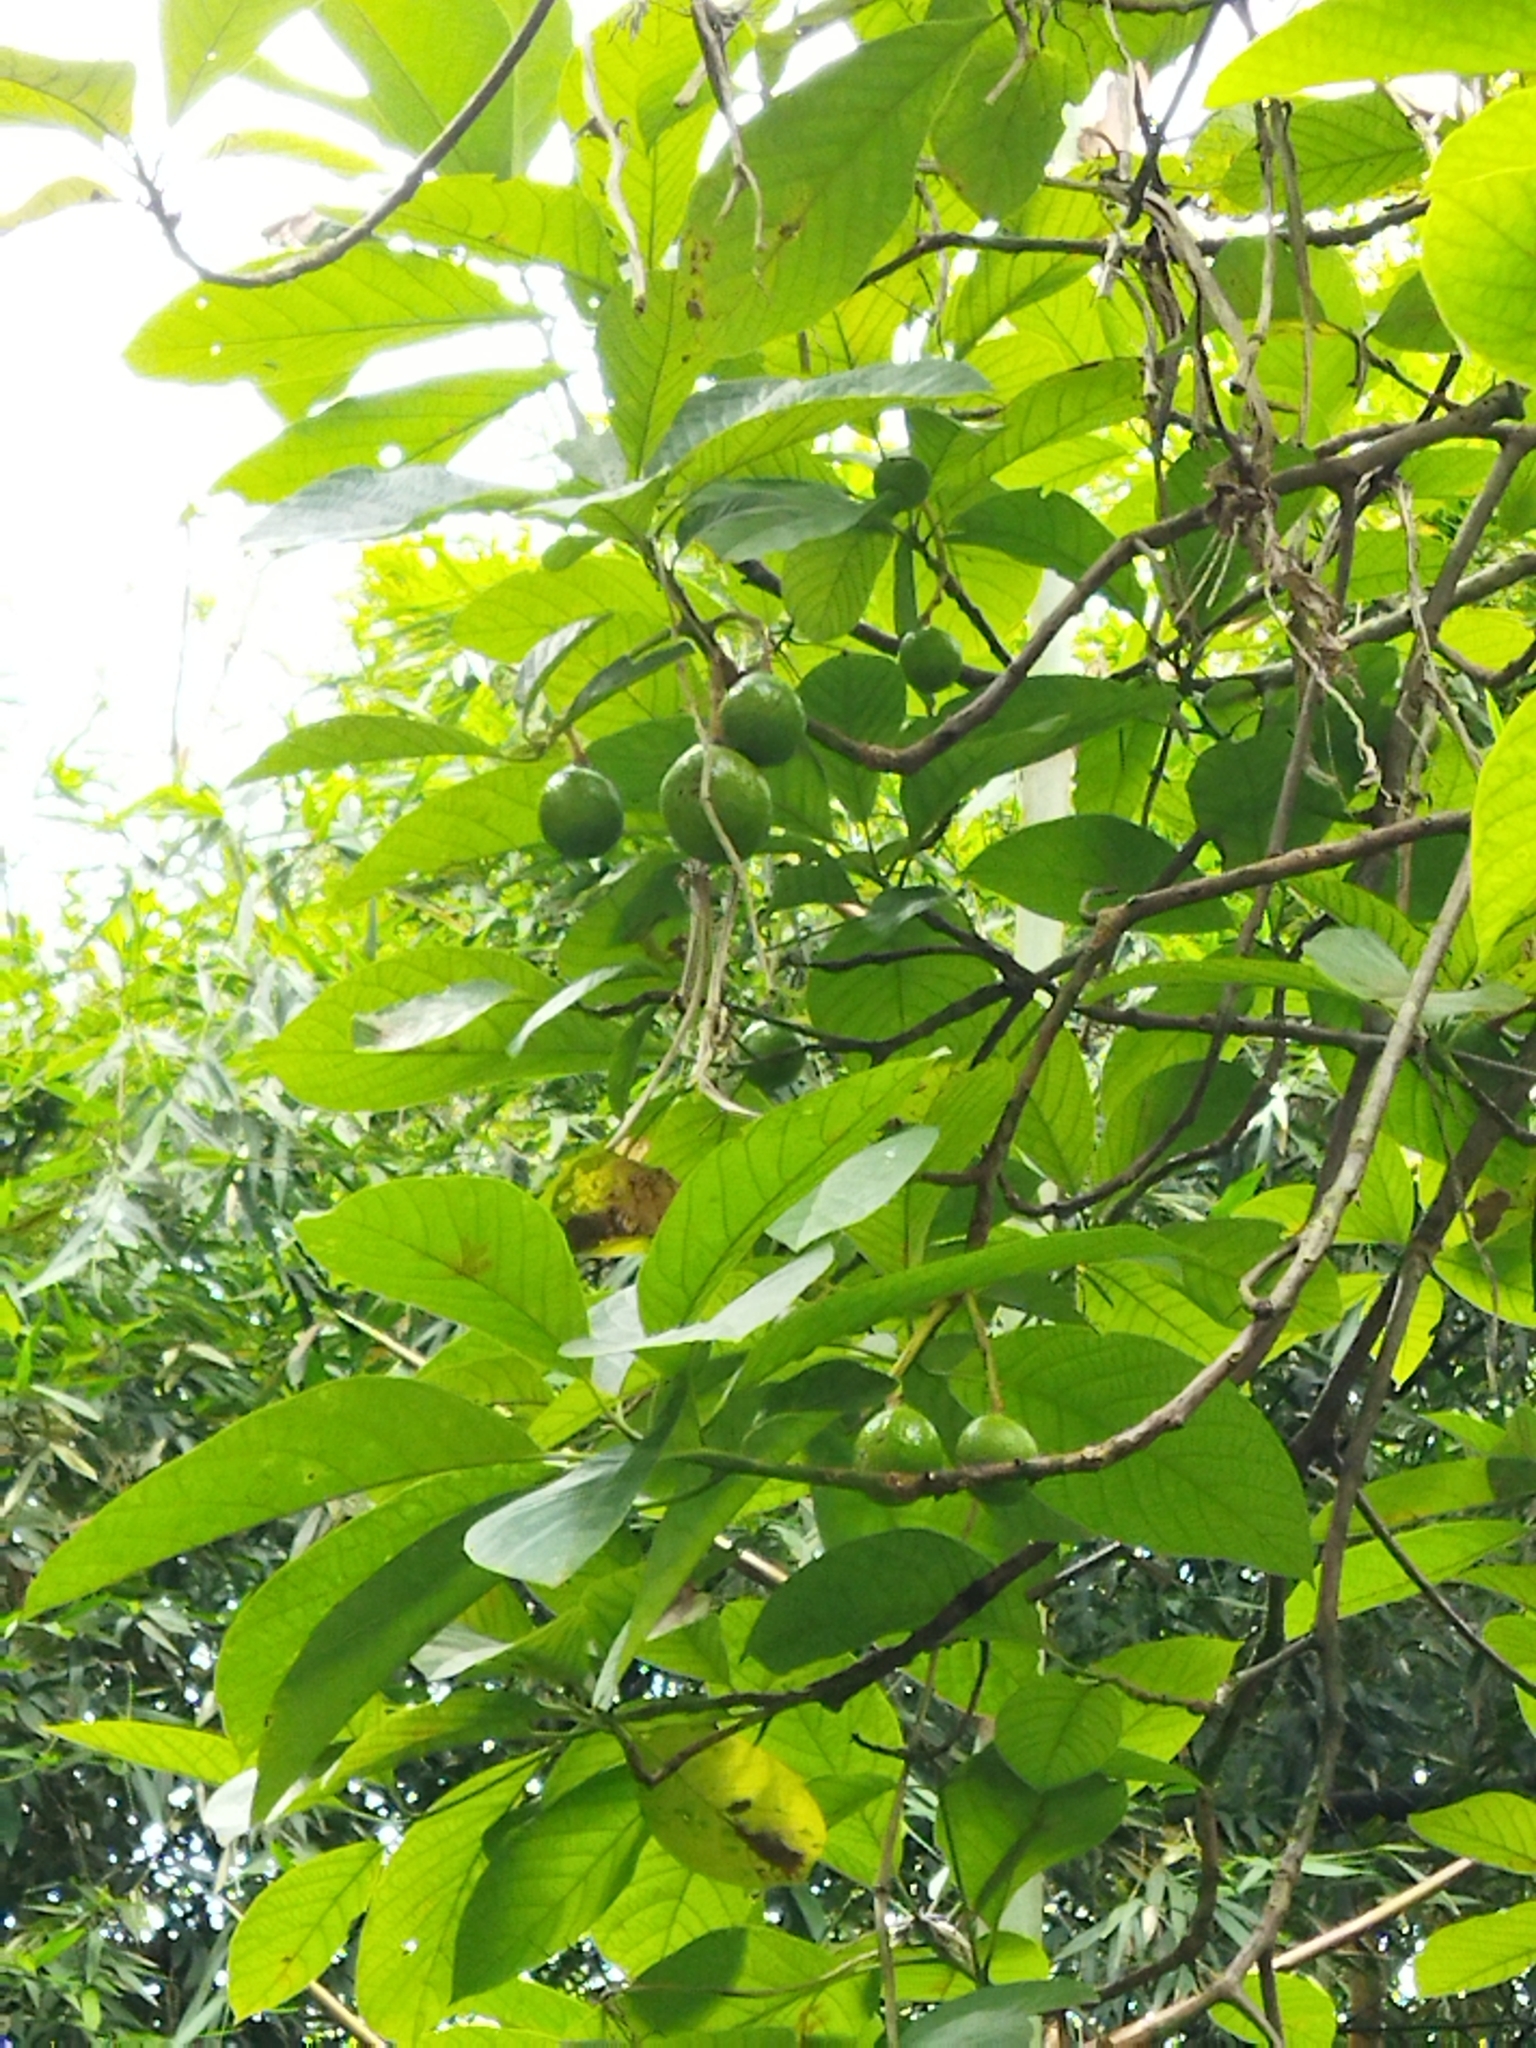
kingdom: Plantae
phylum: Tracheophyta
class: Magnoliopsida
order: Laurales
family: Lauraceae
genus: Persea
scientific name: Persea americana
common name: Avocado
